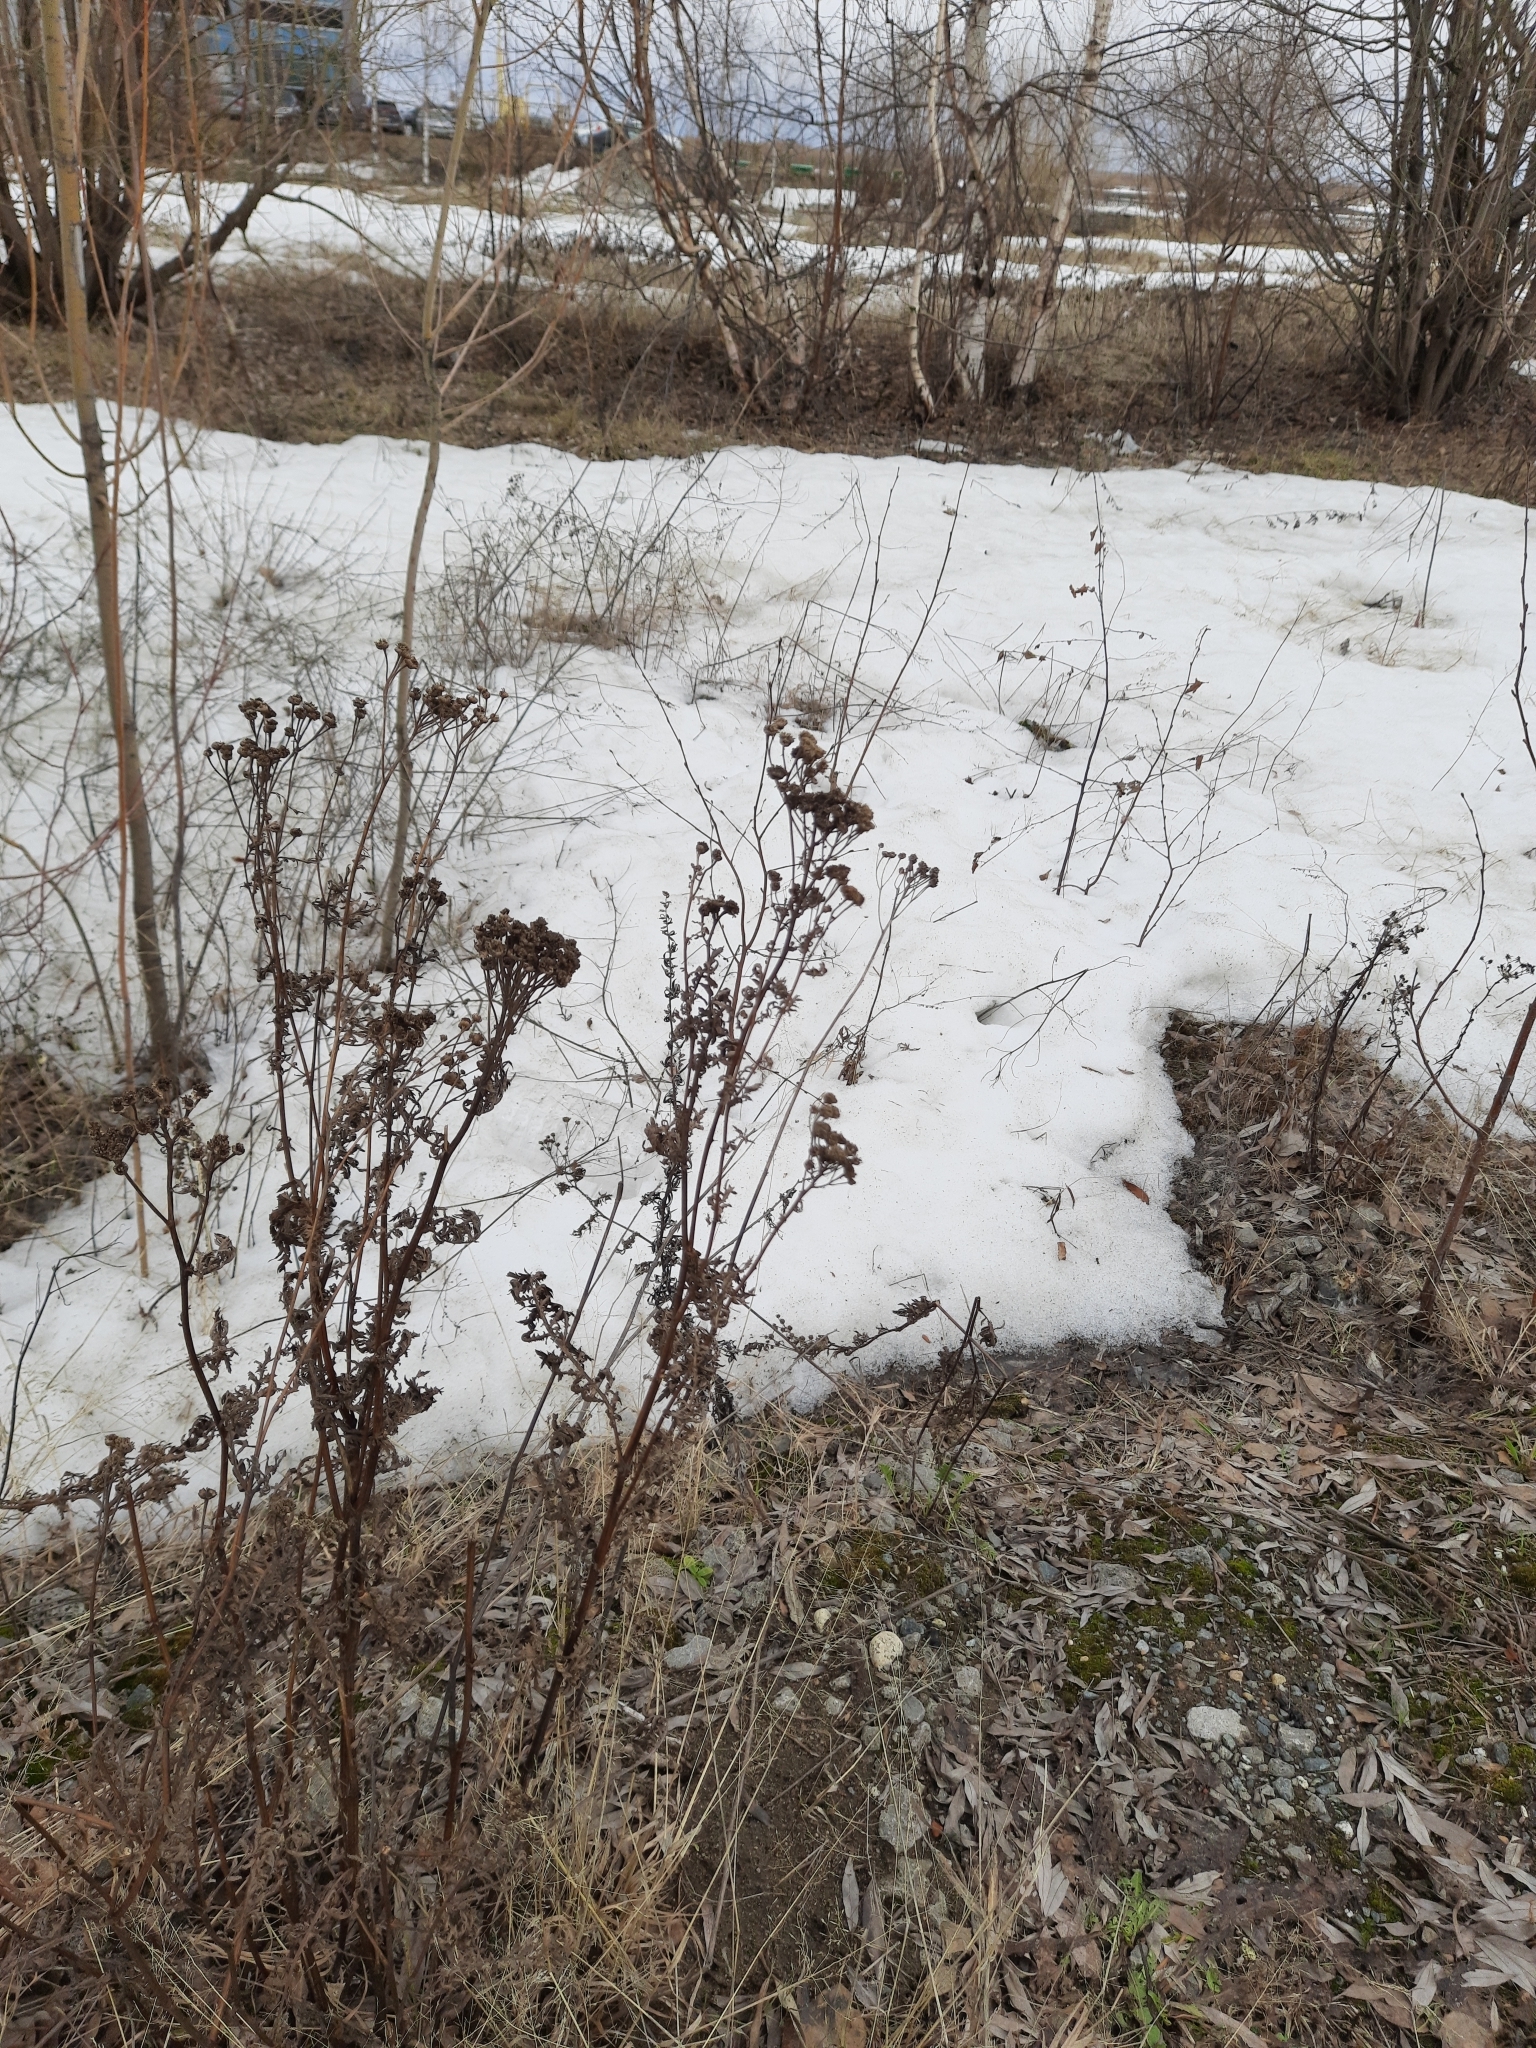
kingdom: Plantae
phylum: Tracheophyta
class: Magnoliopsida
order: Asterales
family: Asteraceae
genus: Tanacetum
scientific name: Tanacetum vulgare
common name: Common tansy
